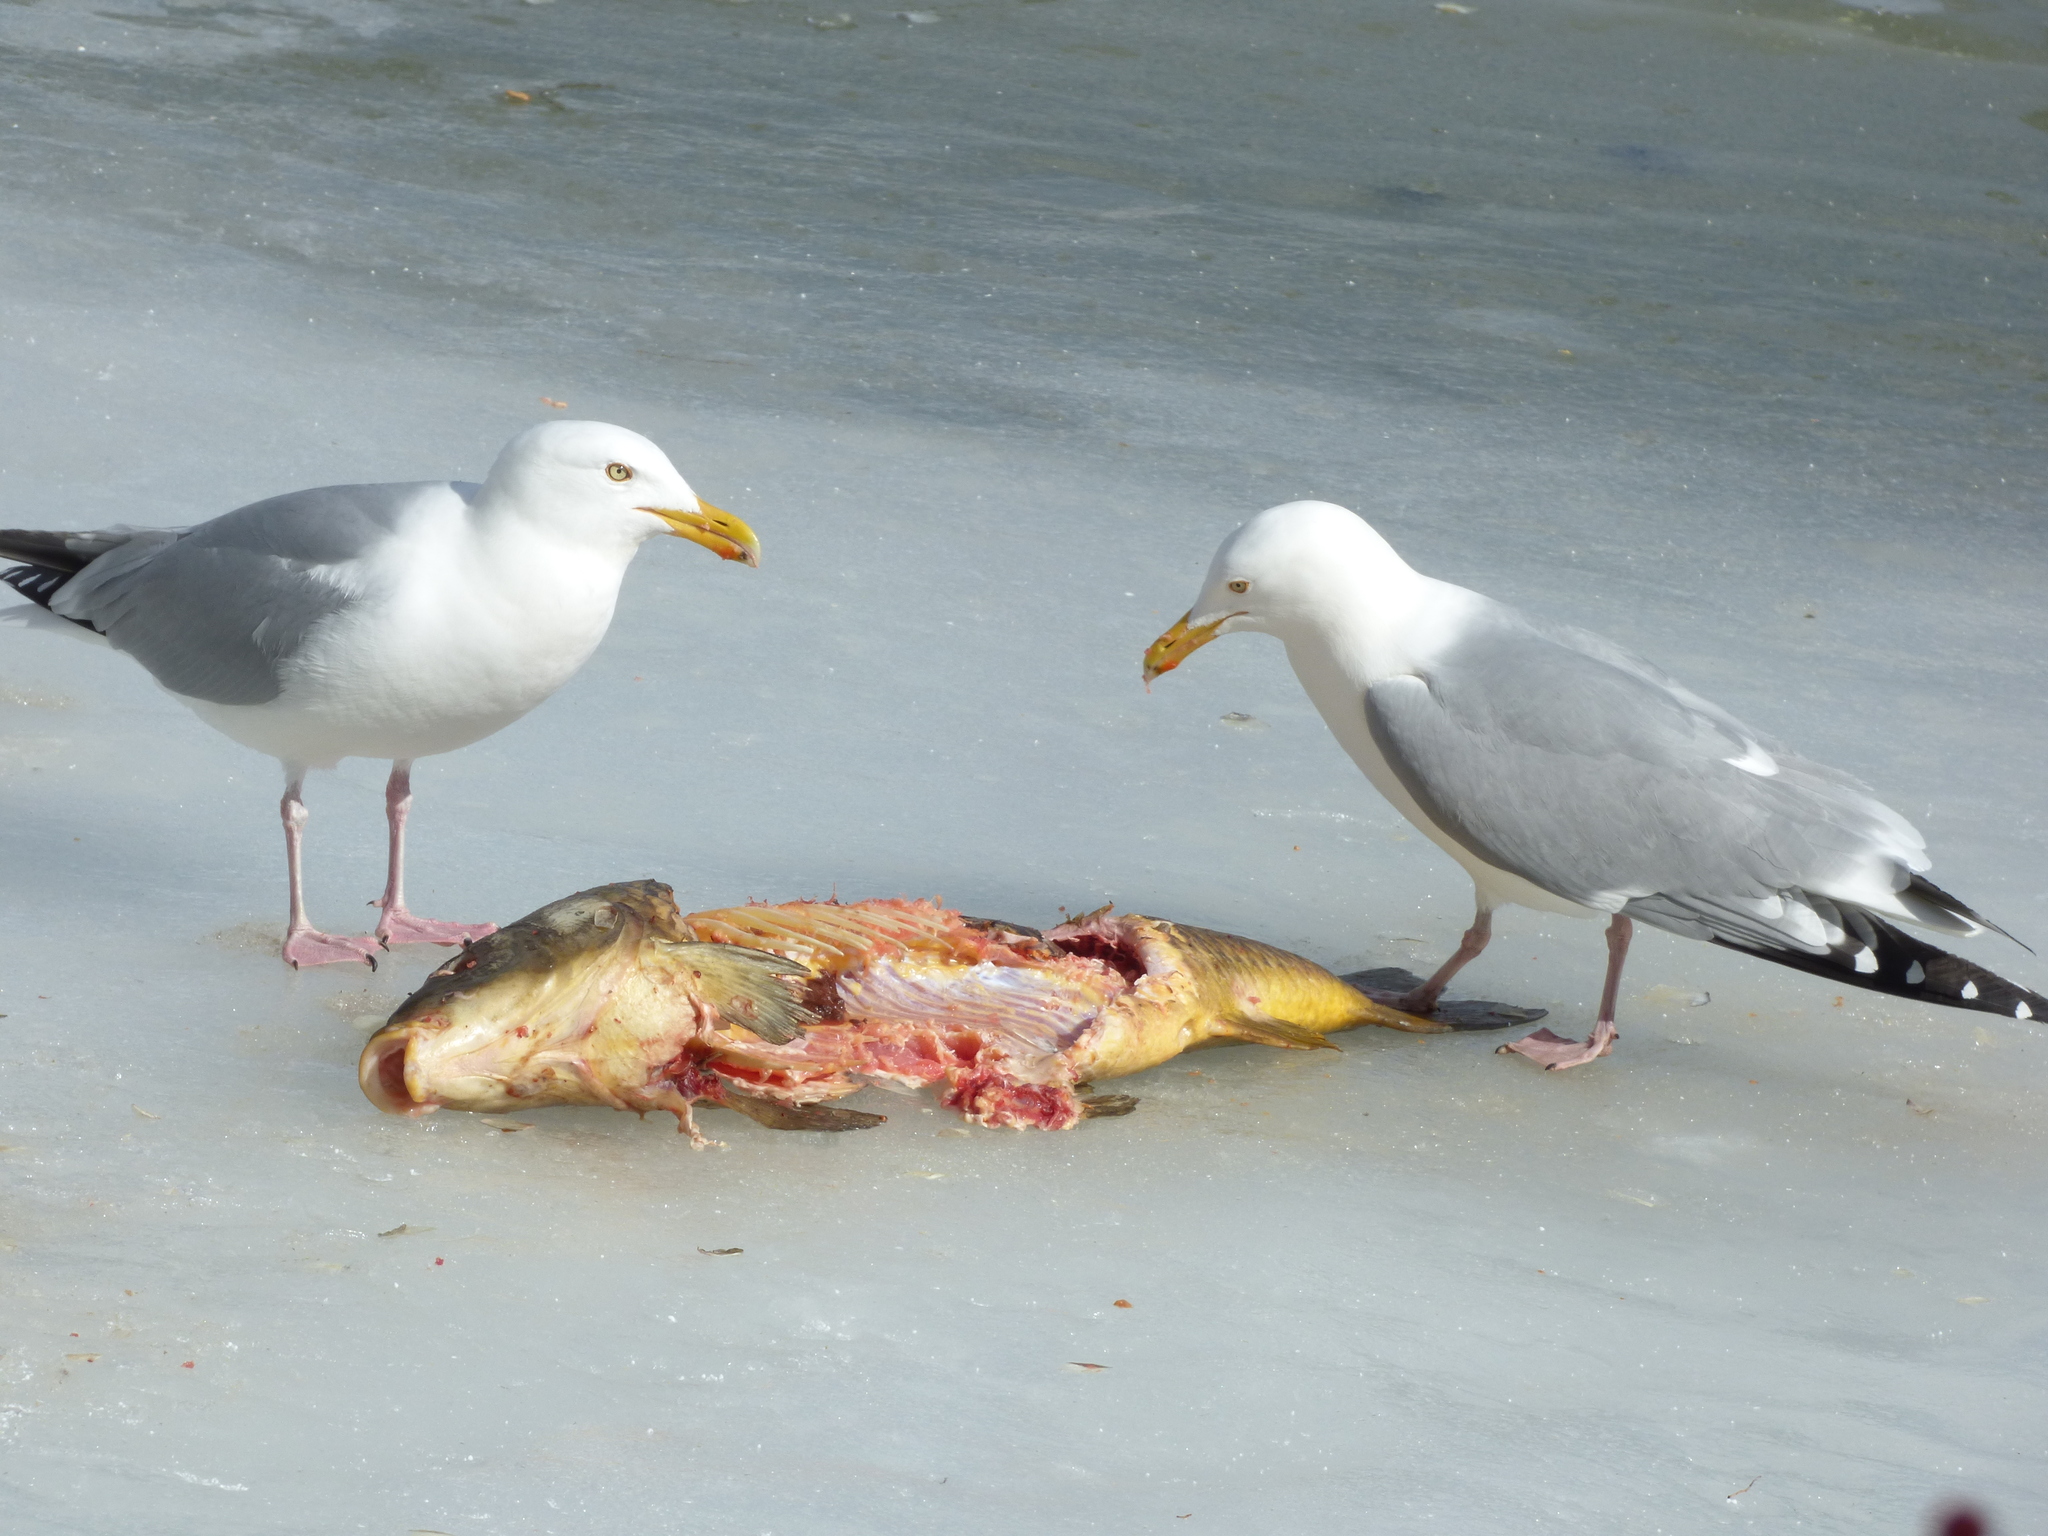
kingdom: Animalia
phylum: Chordata
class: Aves
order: Charadriiformes
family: Laridae
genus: Larus
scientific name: Larus argentatus
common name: Herring gull
